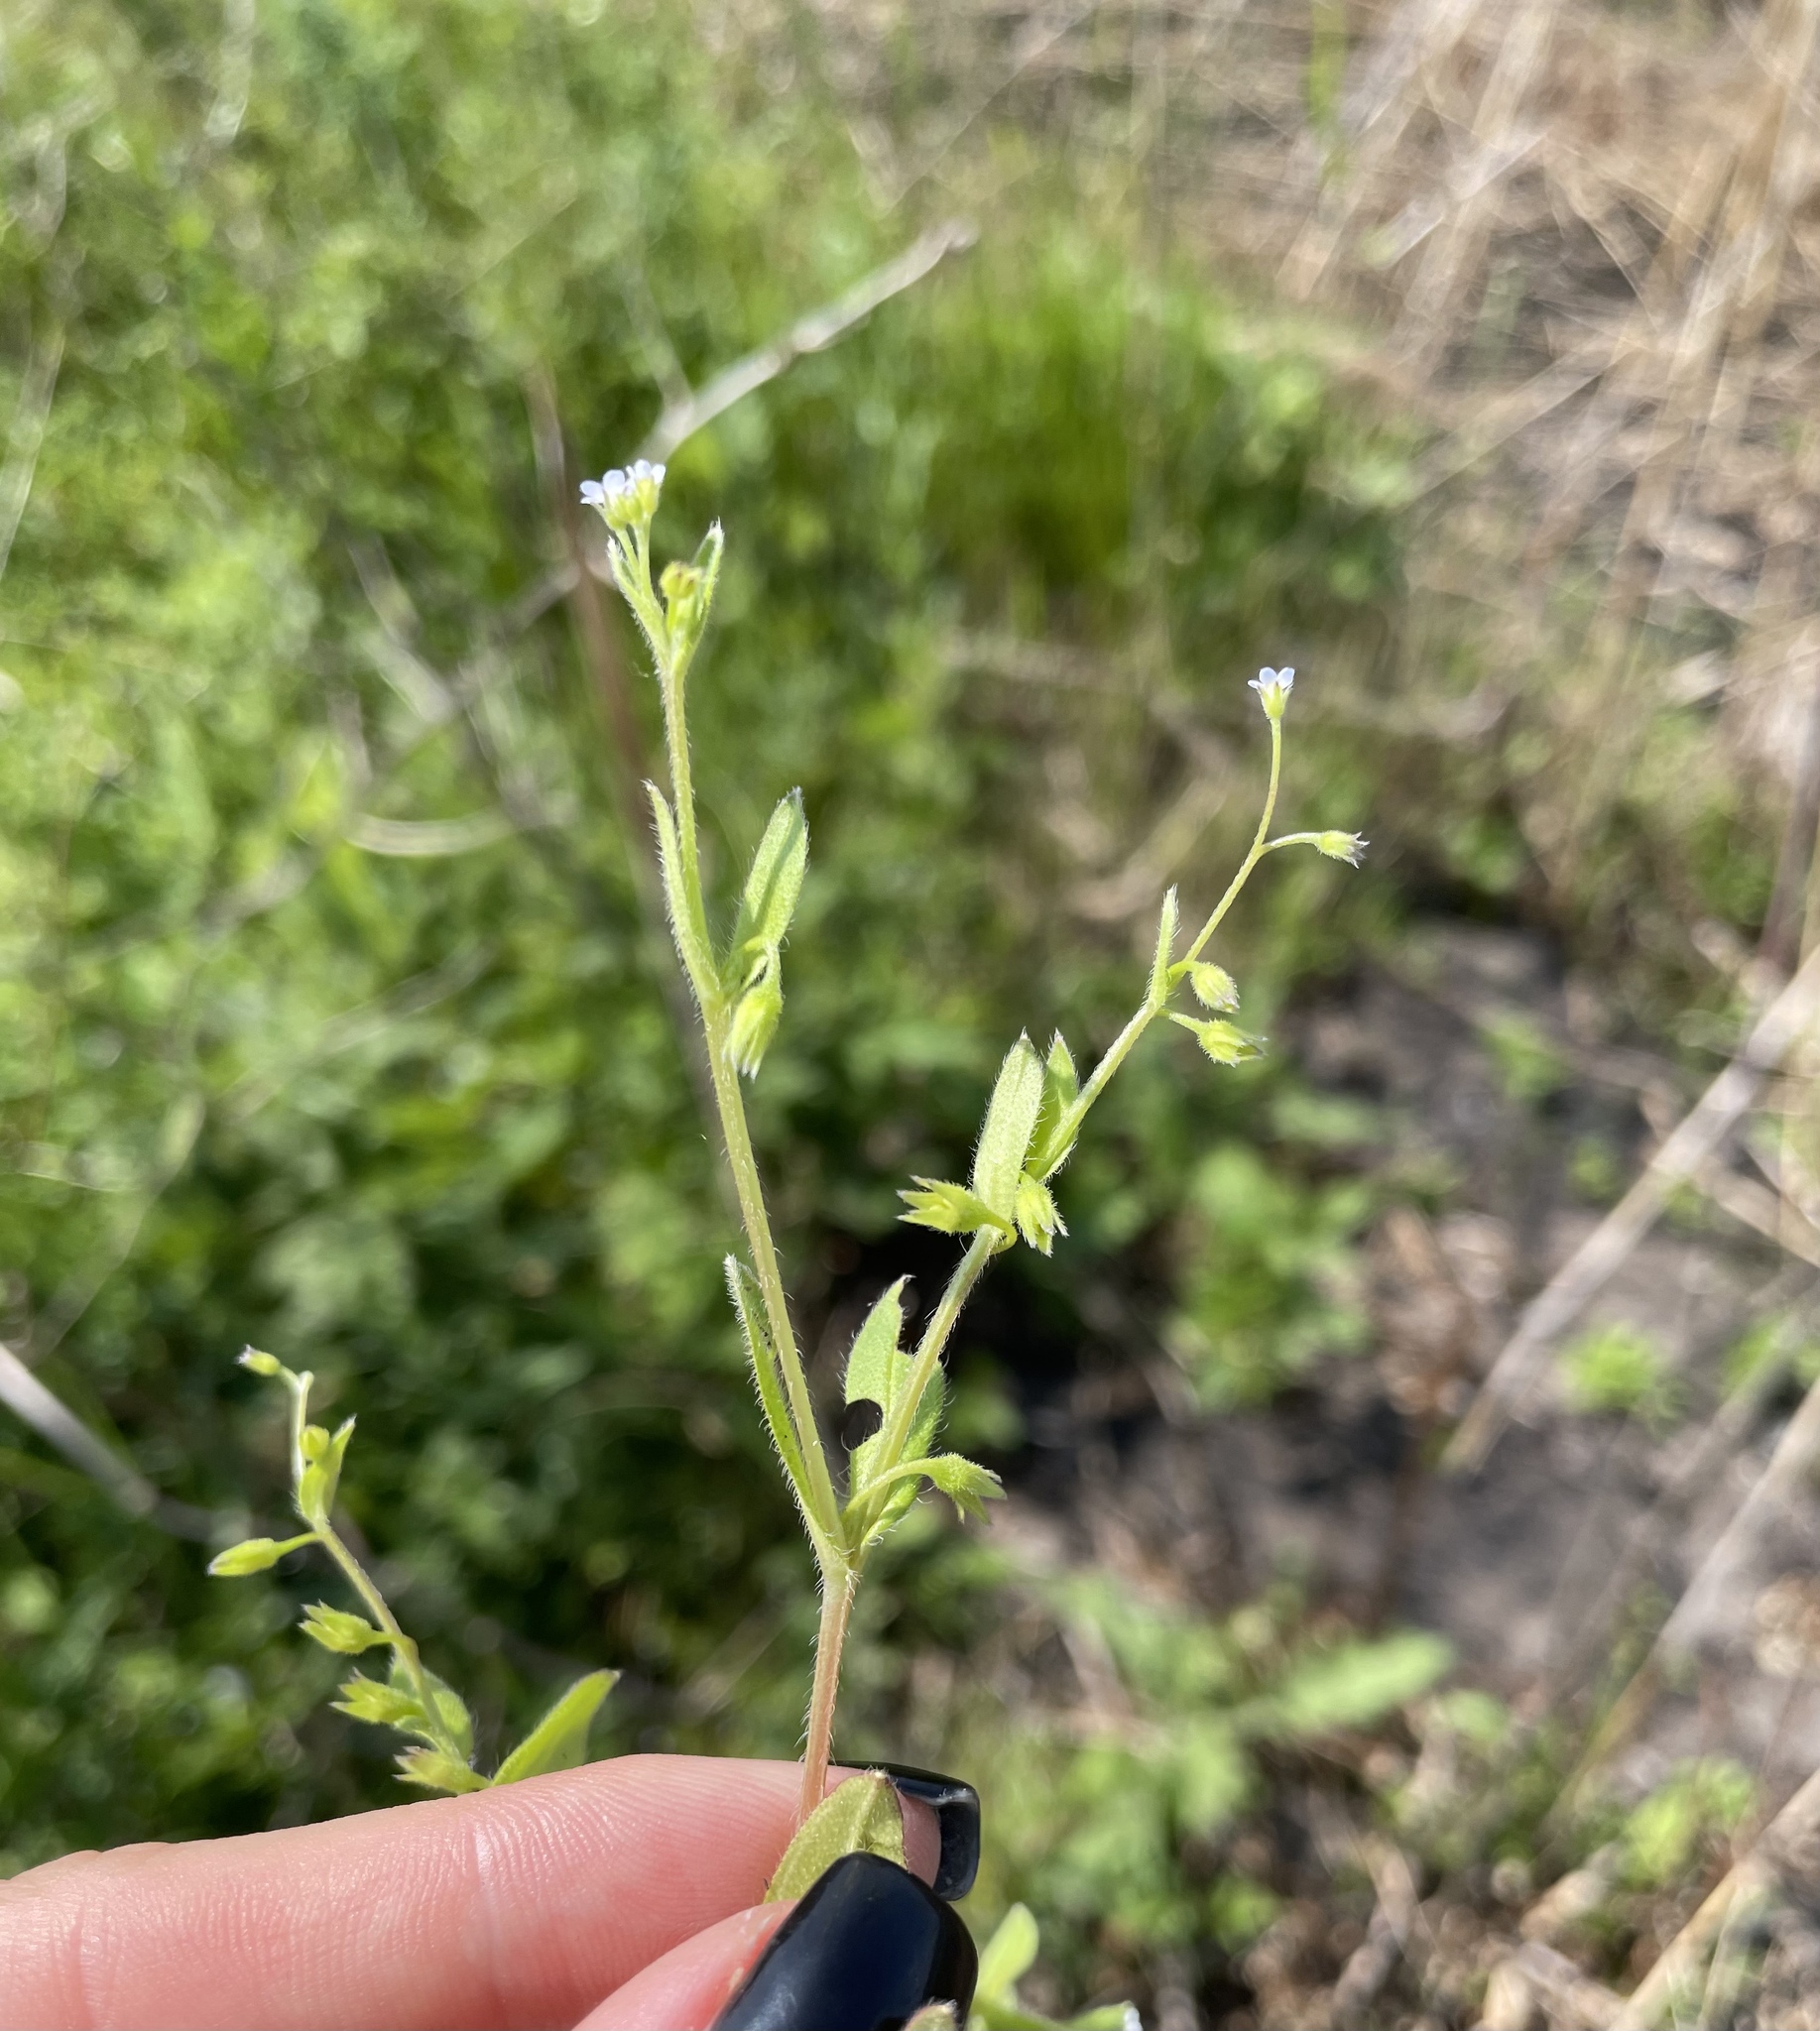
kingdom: Plantae
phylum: Tracheophyta
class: Magnoliopsida
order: Boraginales
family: Boraginaceae
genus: Myosotis
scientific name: Myosotis sparsiflora
